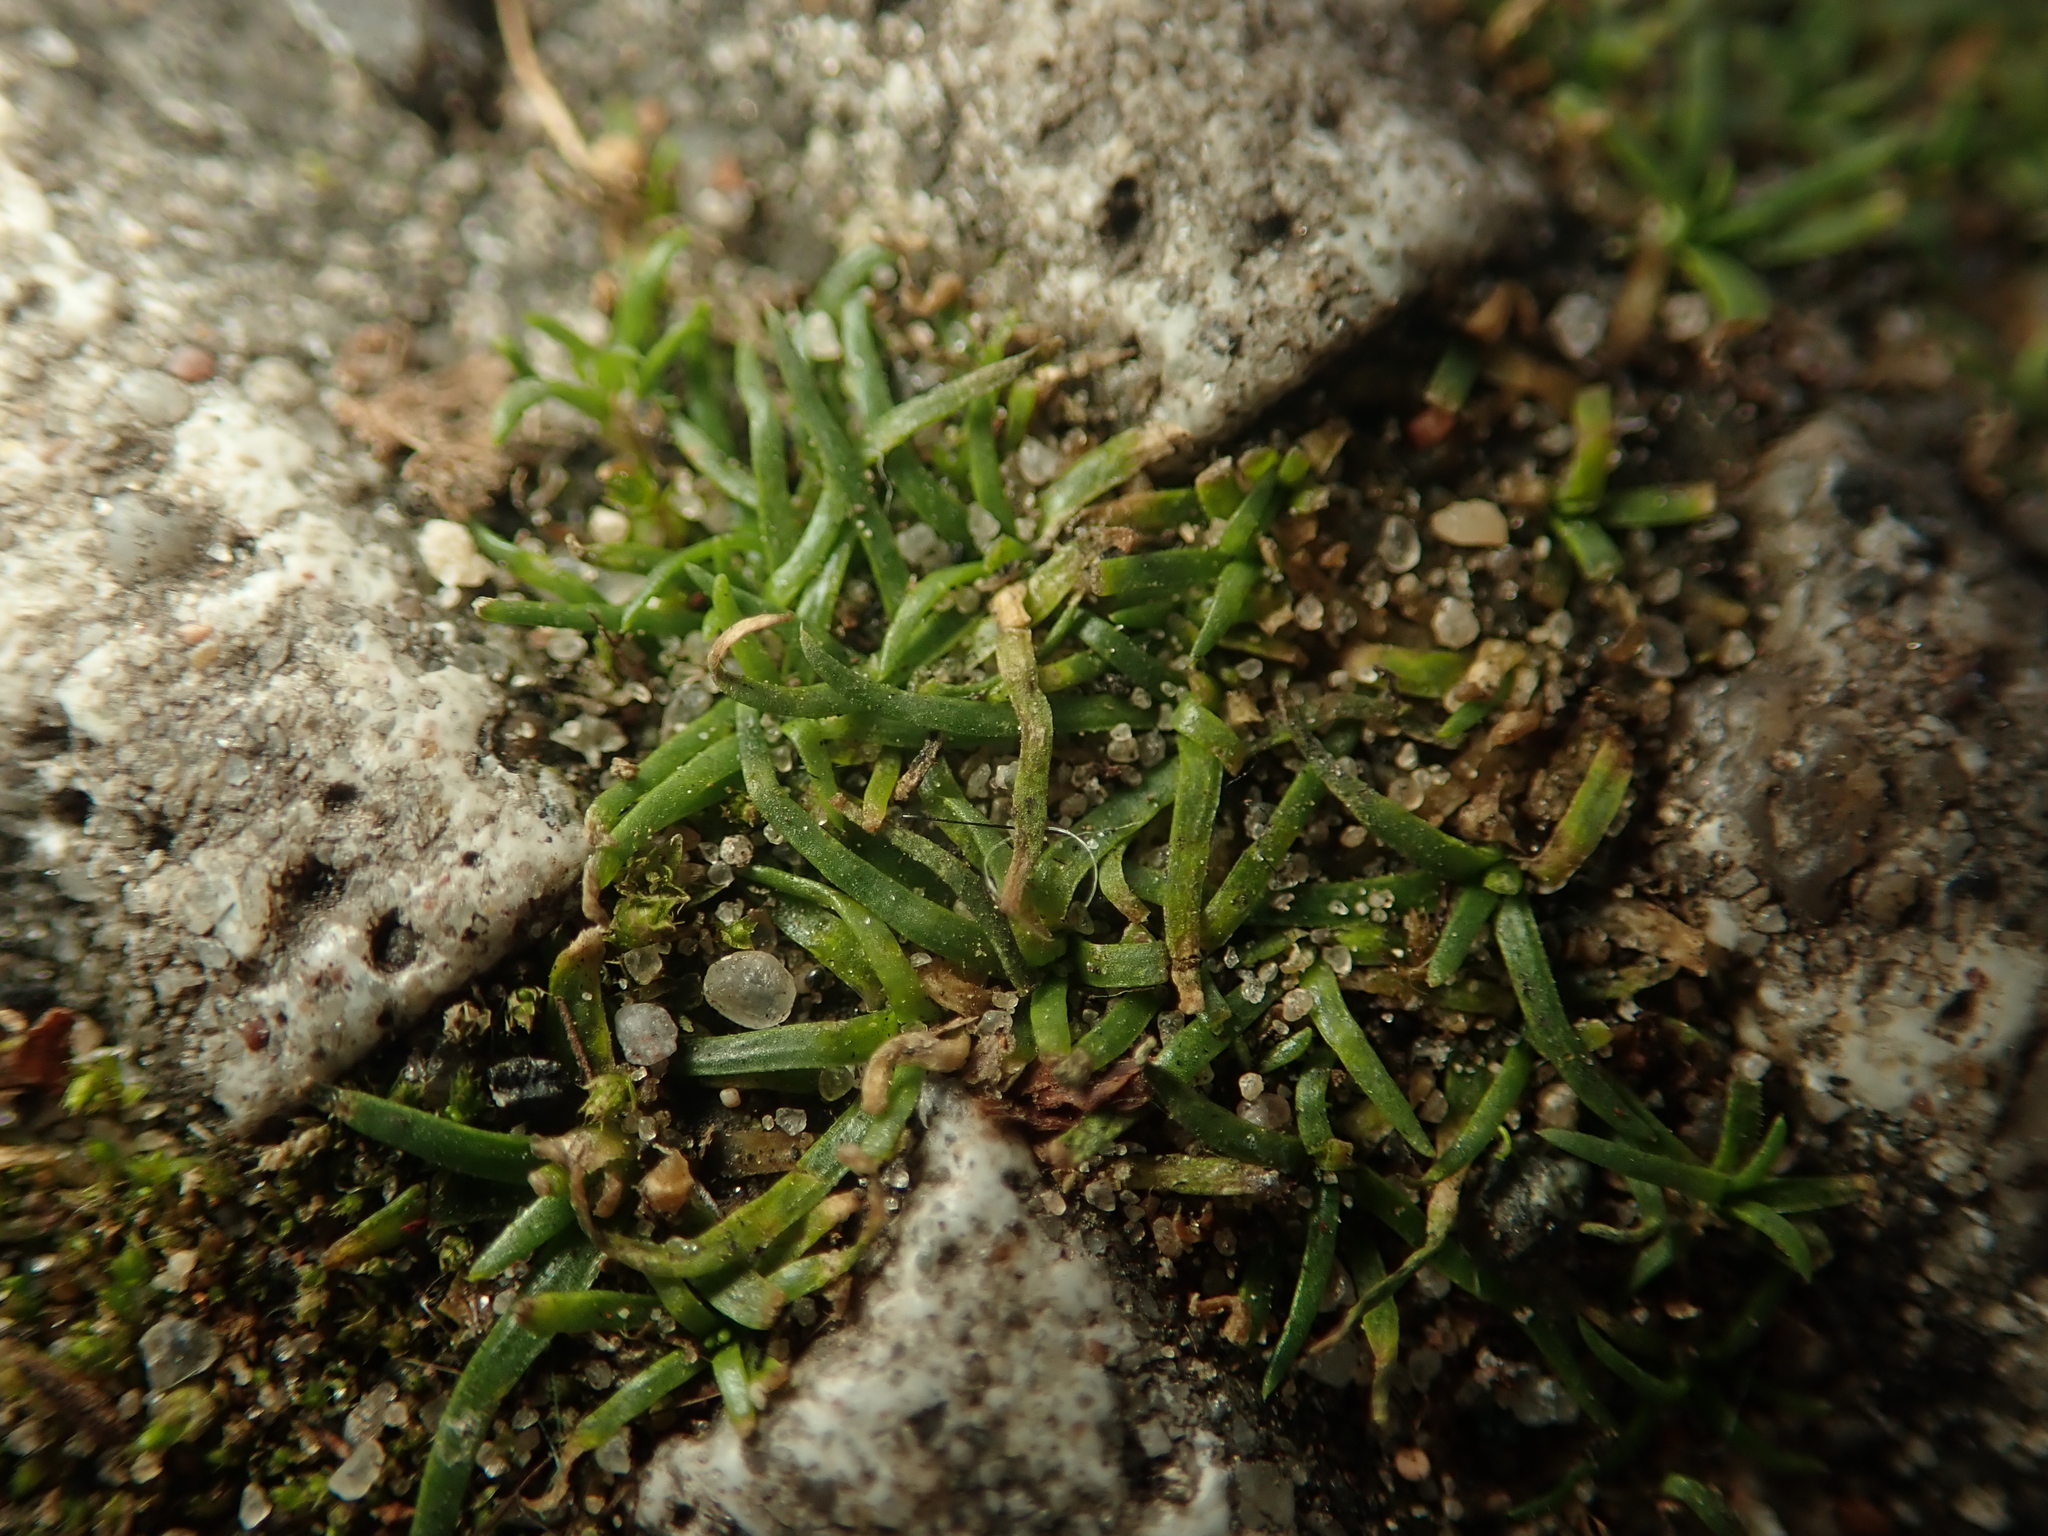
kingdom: Plantae
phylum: Tracheophyta
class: Magnoliopsida
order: Caryophyllales
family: Caryophyllaceae
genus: Sagina
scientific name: Sagina procumbens
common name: Procumbent pearlwort
